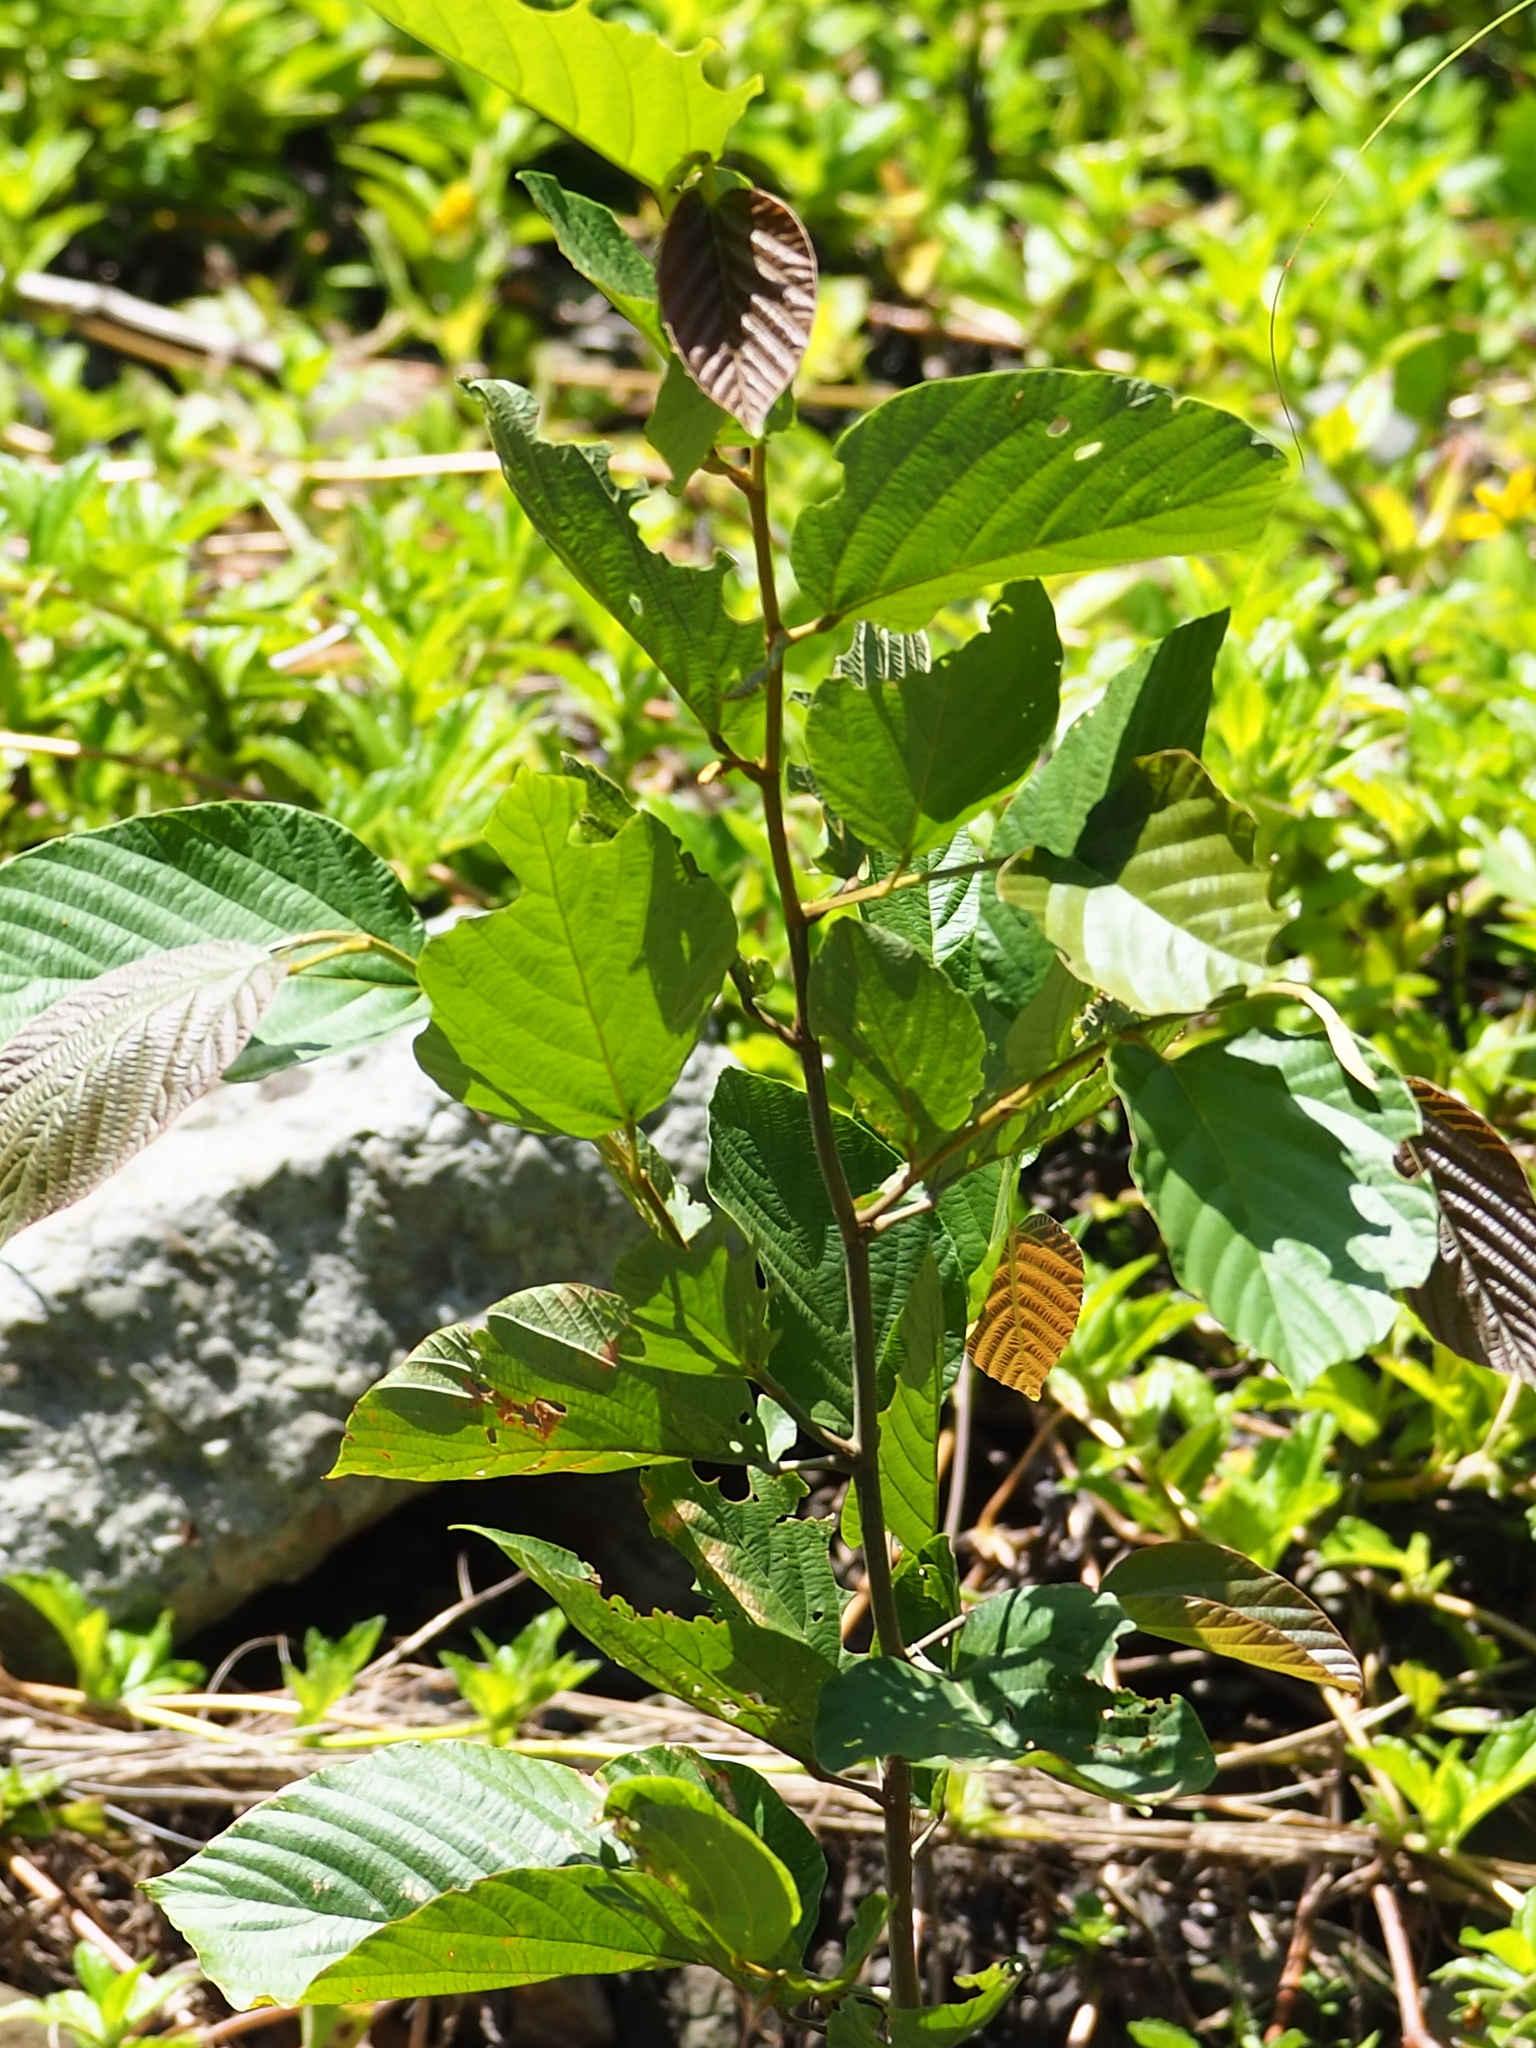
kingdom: Plantae
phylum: Tracheophyta
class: Magnoliopsida
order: Fabales
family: Fabaceae
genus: Flemingia
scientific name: Flemingia strobilifera
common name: Wild hops
